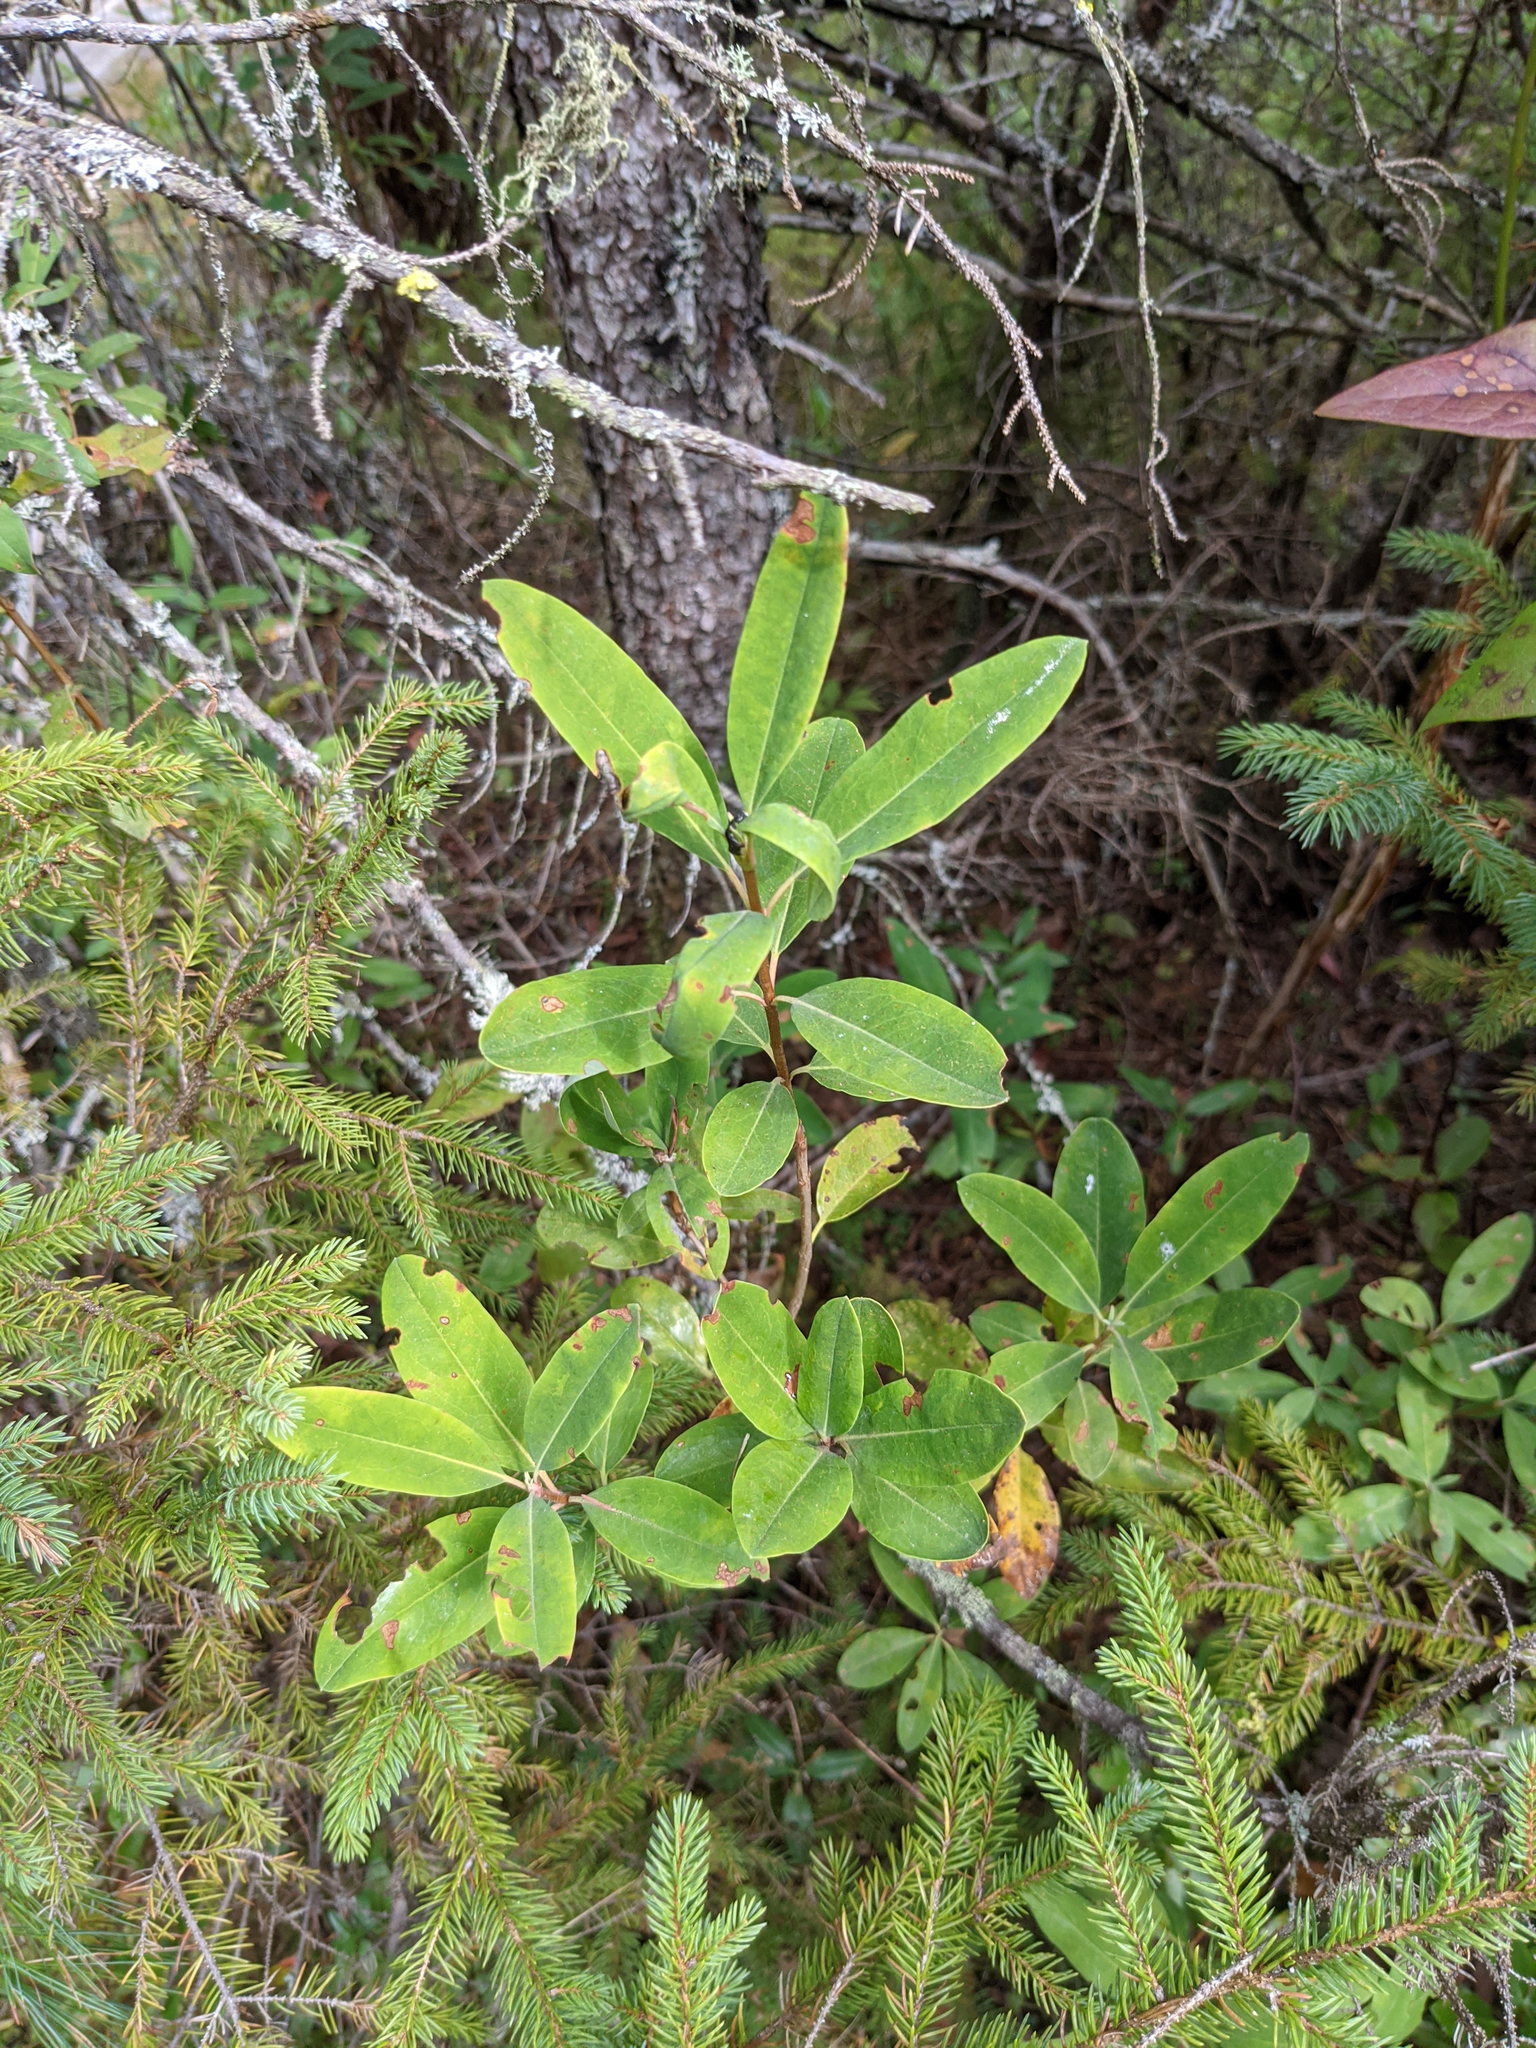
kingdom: Plantae
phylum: Tracheophyta
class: Magnoliopsida
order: Ericales
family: Ericaceae
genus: Kalmia
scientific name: Kalmia angustifolia
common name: Sheep-laurel
